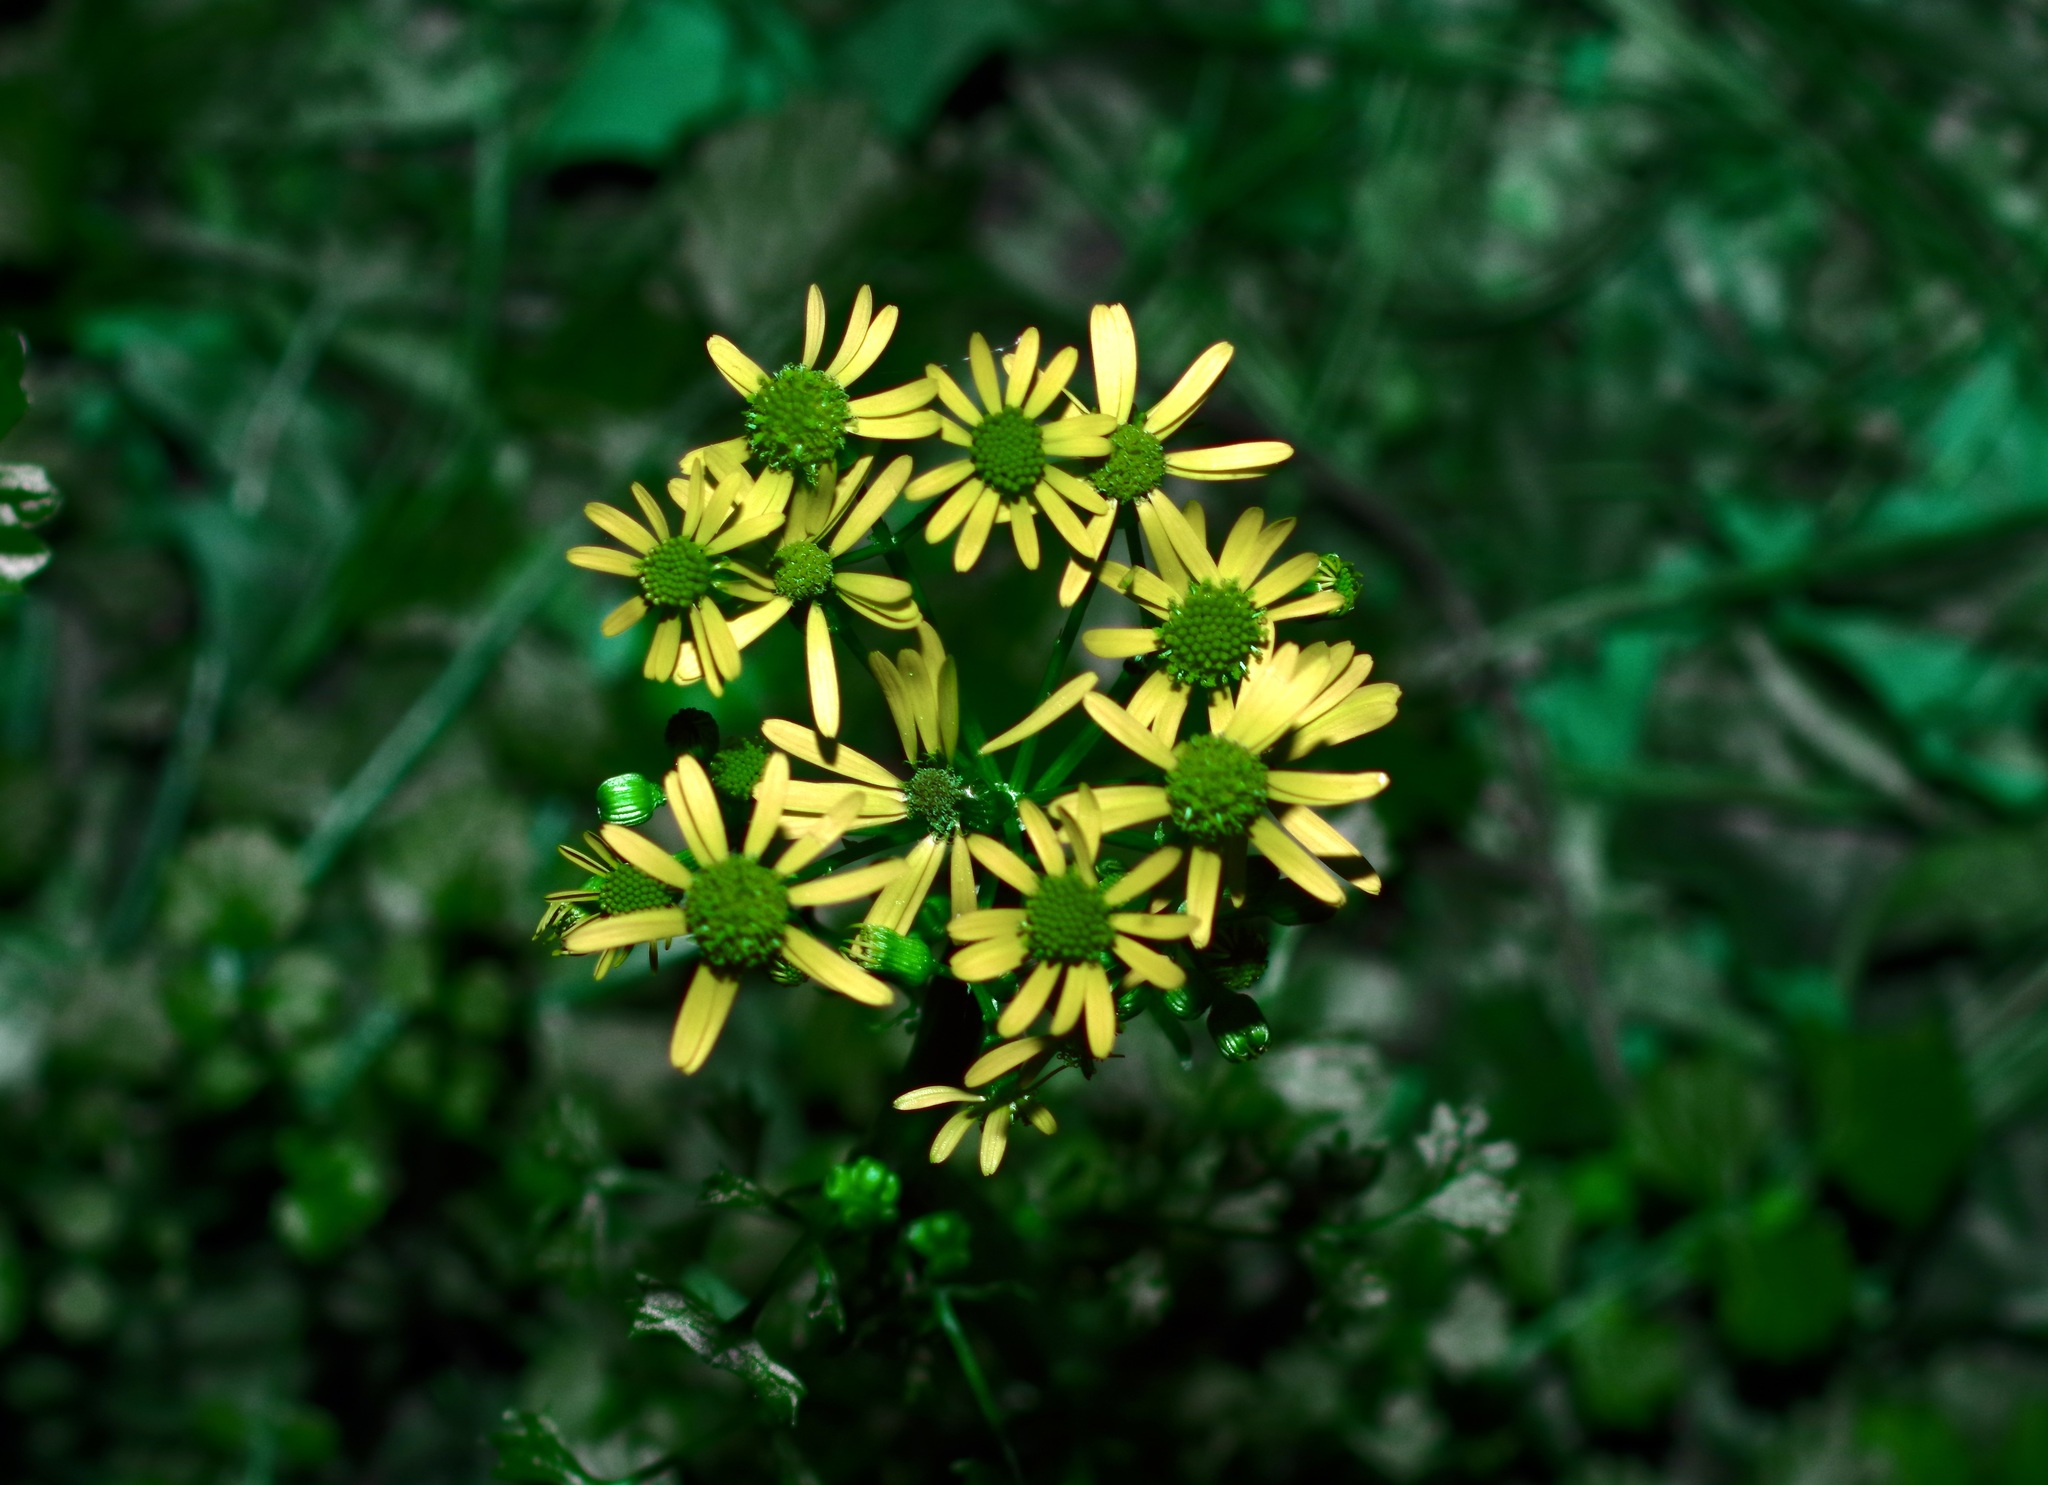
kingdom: Plantae
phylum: Tracheophyta
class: Magnoliopsida
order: Asterales
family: Asteraceae
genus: Packera
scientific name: Packera glabella
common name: Butterweed
